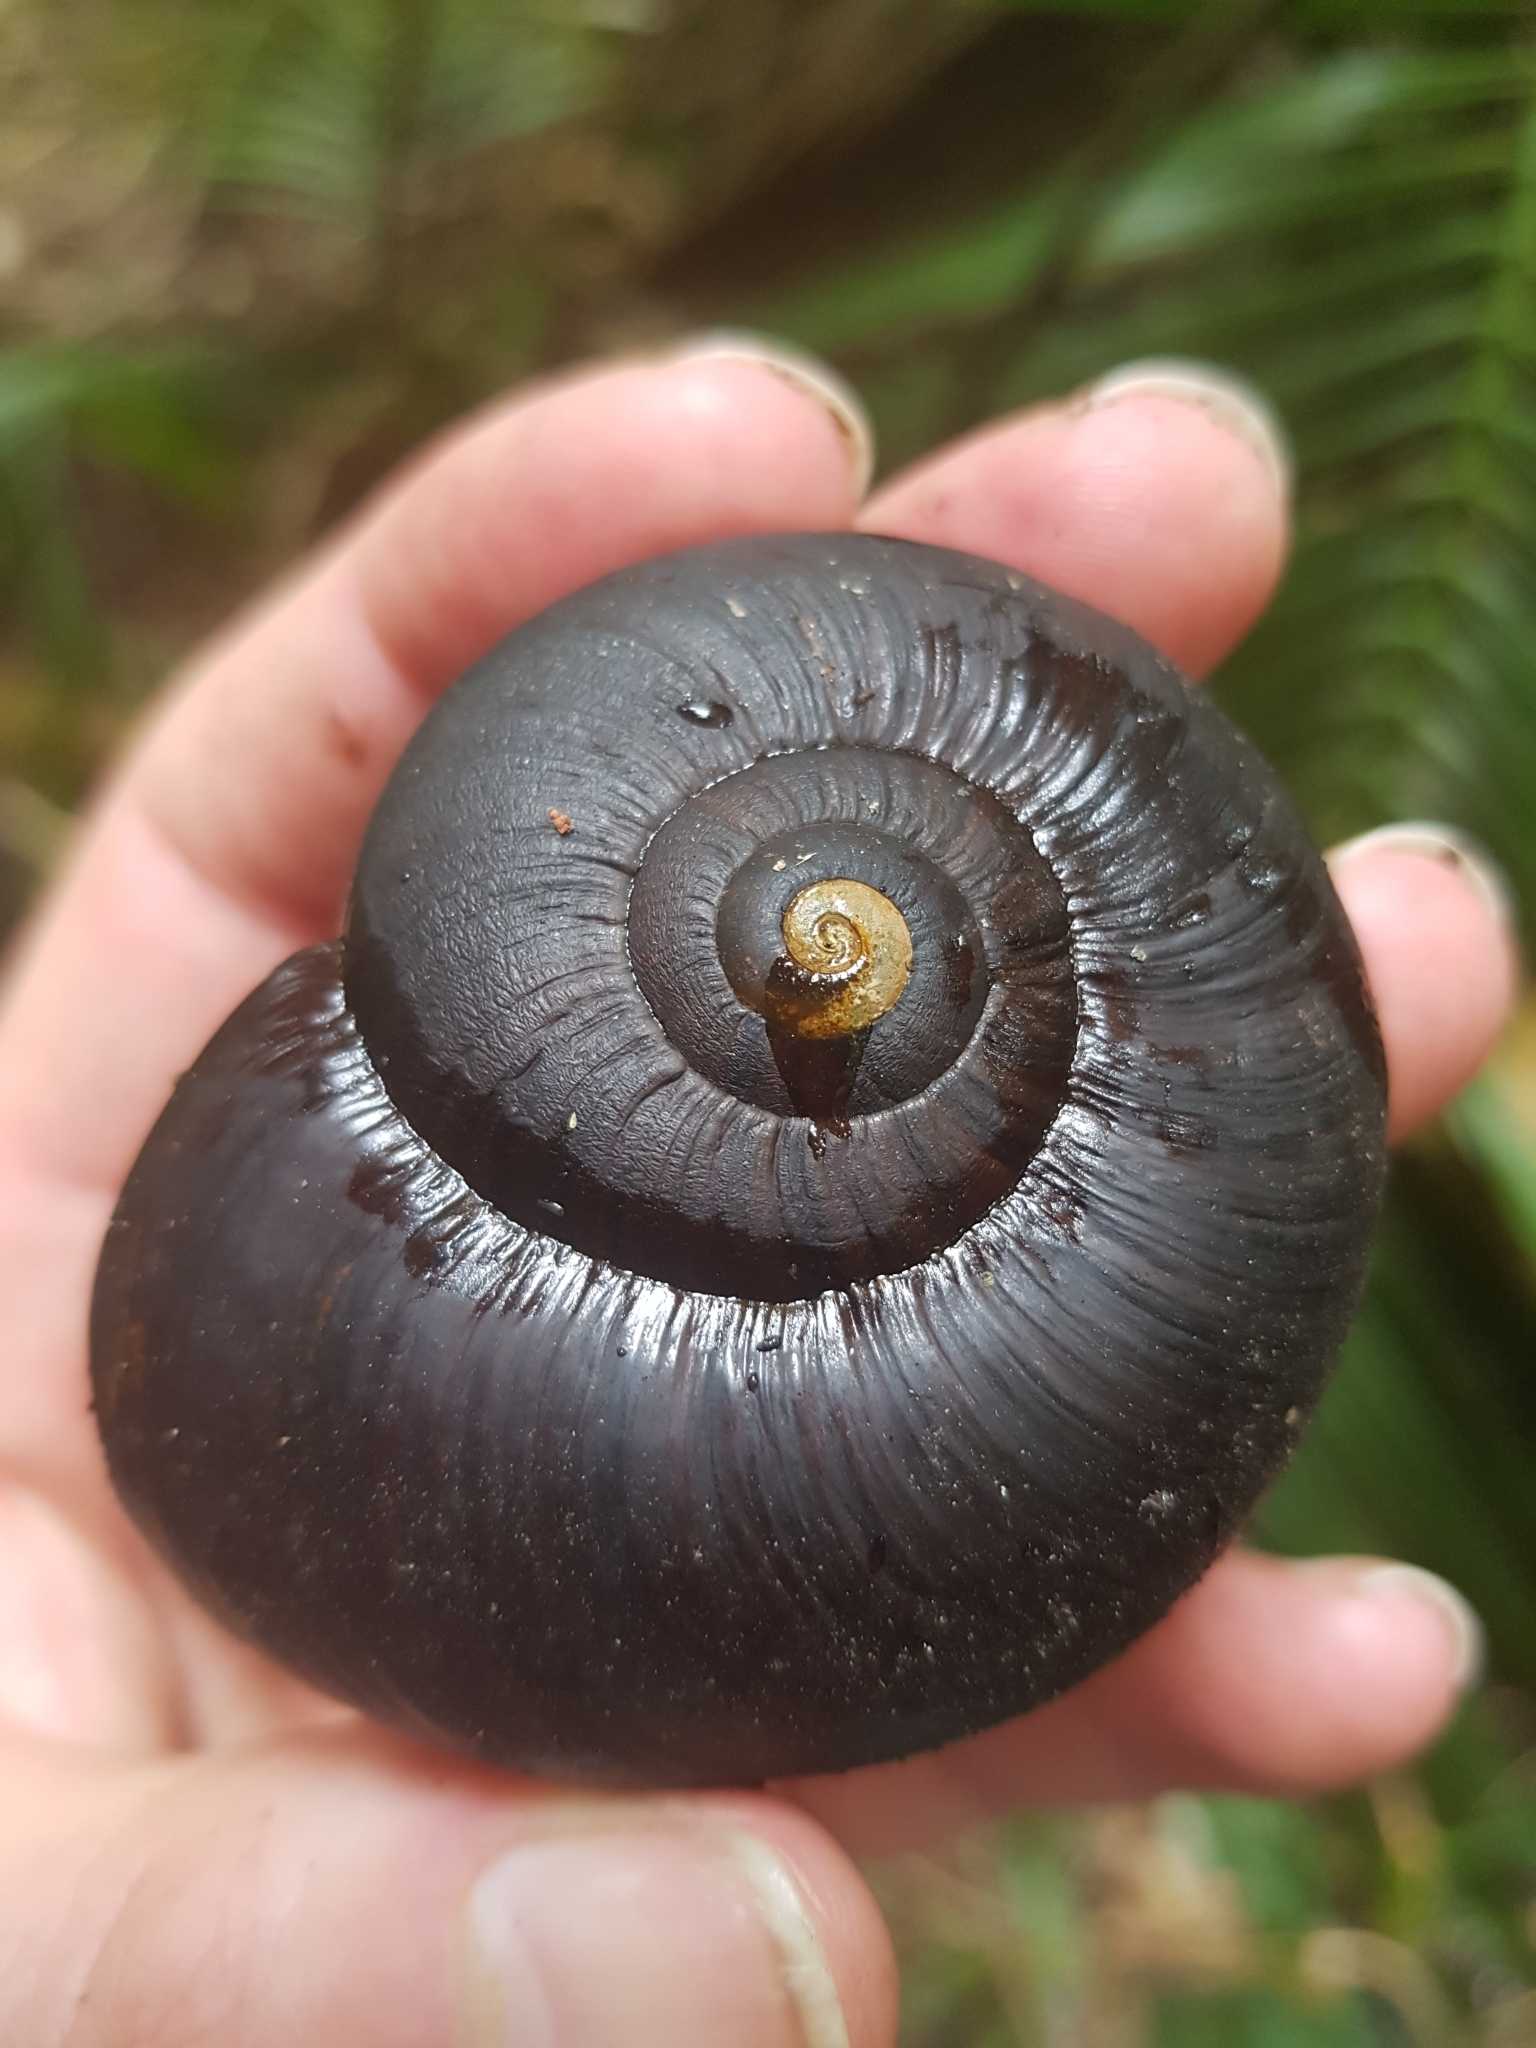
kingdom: Animalia
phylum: Mollusca
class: Gastropoda
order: Stylommatophora
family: Rhytididae
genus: Powelliphanta
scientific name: Powelliphanta annectens
